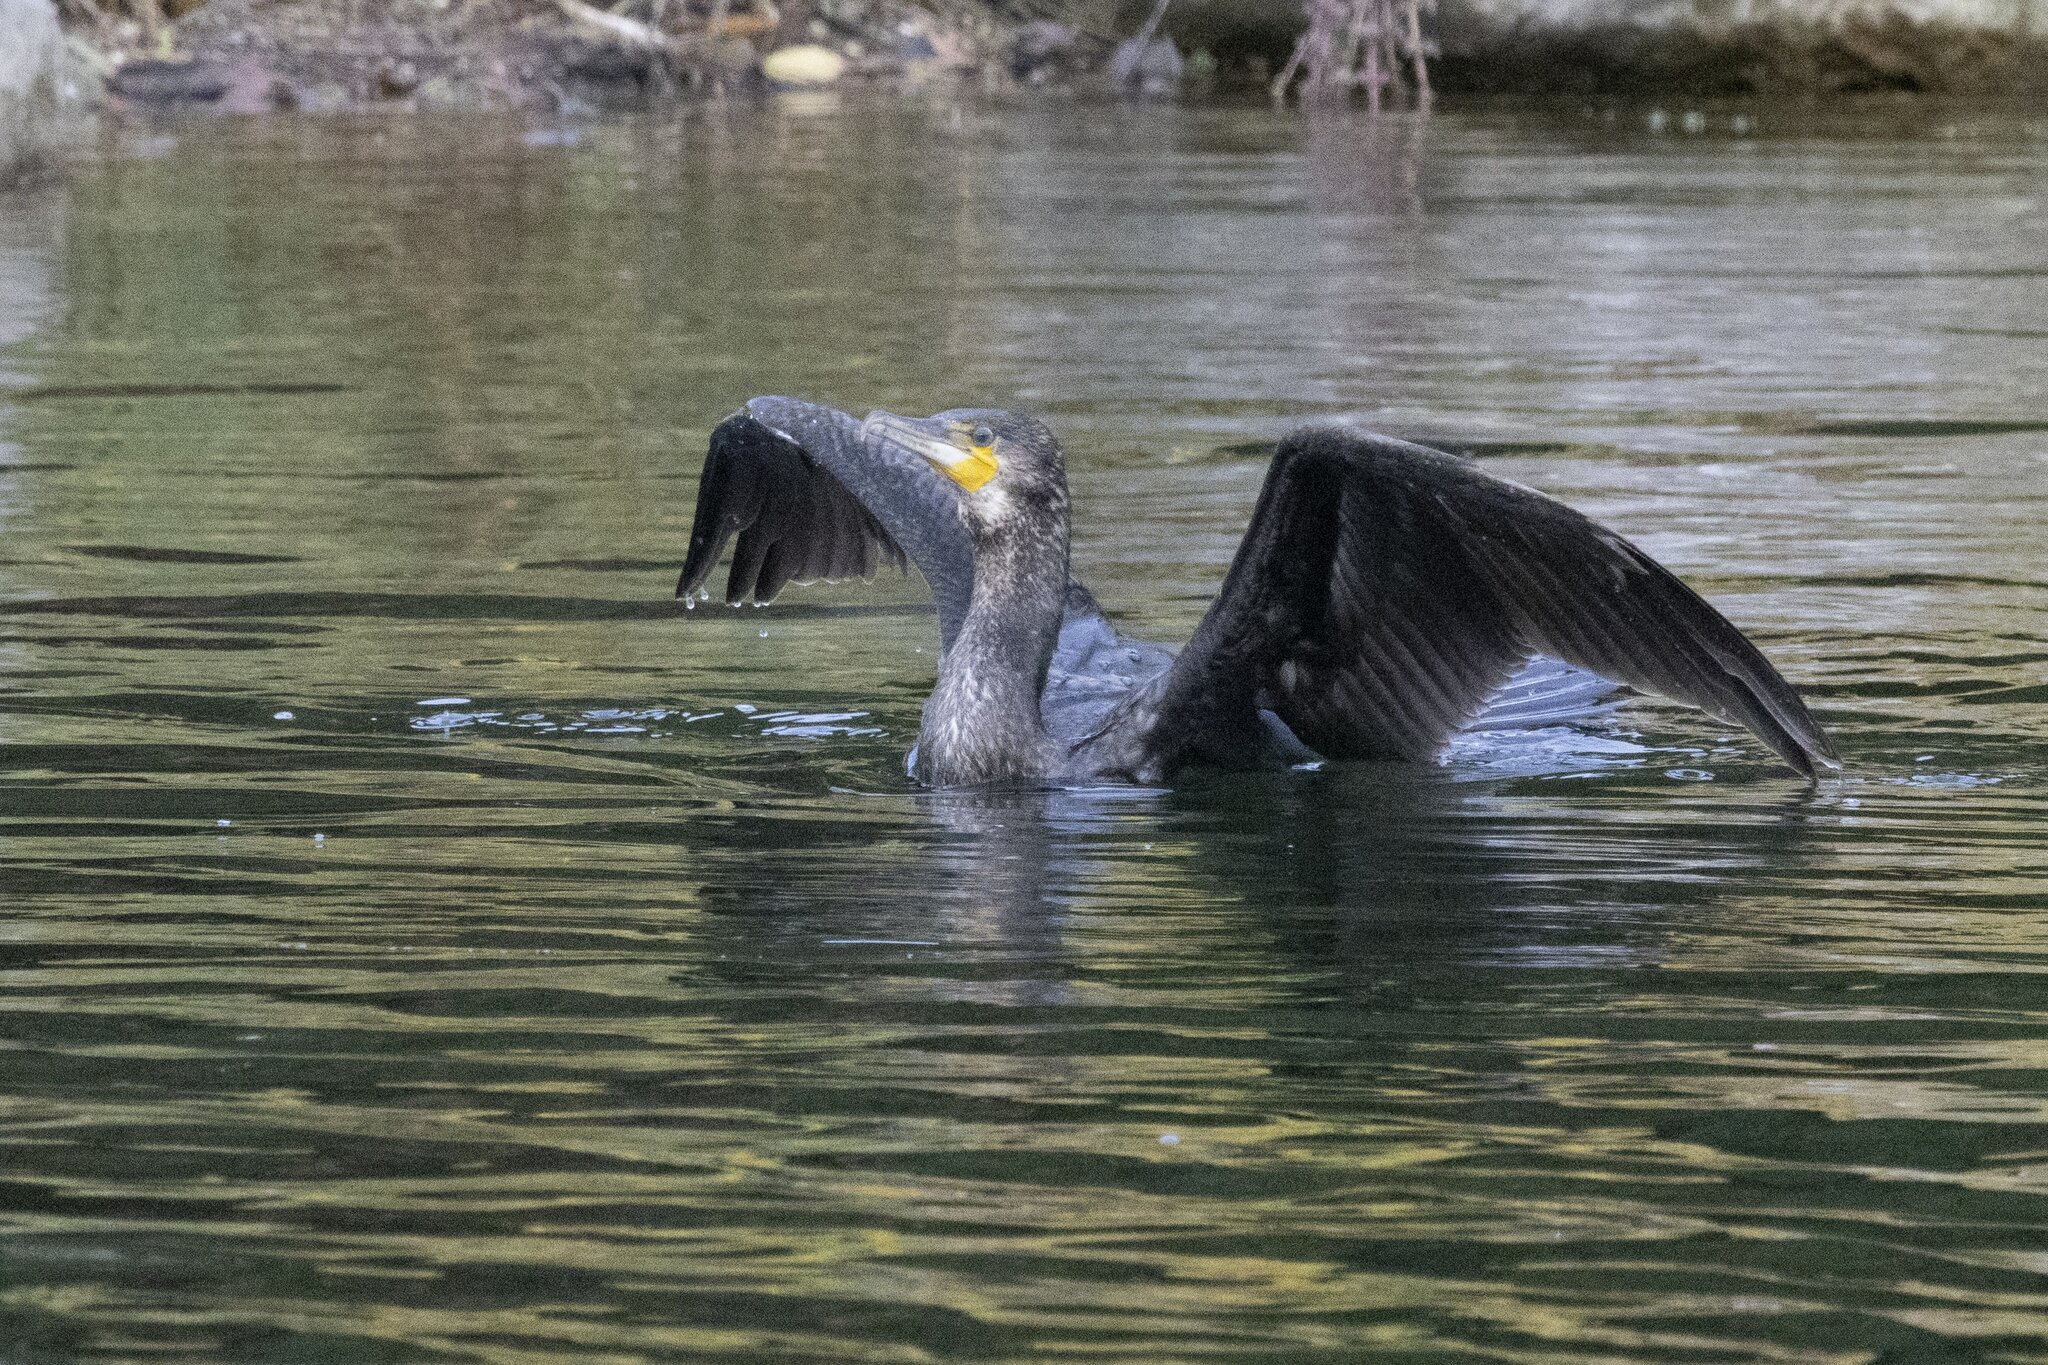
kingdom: Animalia
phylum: Chordata
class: Aves
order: Suliformes
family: Phalacrocoracidae
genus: Phalacrocorax
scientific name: Phalacrocorax carbo
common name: Great cormorant
